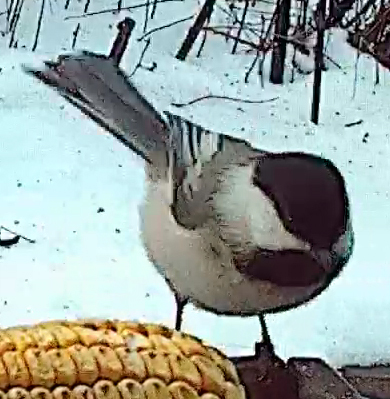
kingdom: Animalia
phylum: Chordata
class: Aves
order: Passeriformes
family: Paridae
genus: Poecile
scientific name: Poecile atricapillus
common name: Black-capped chickadee
